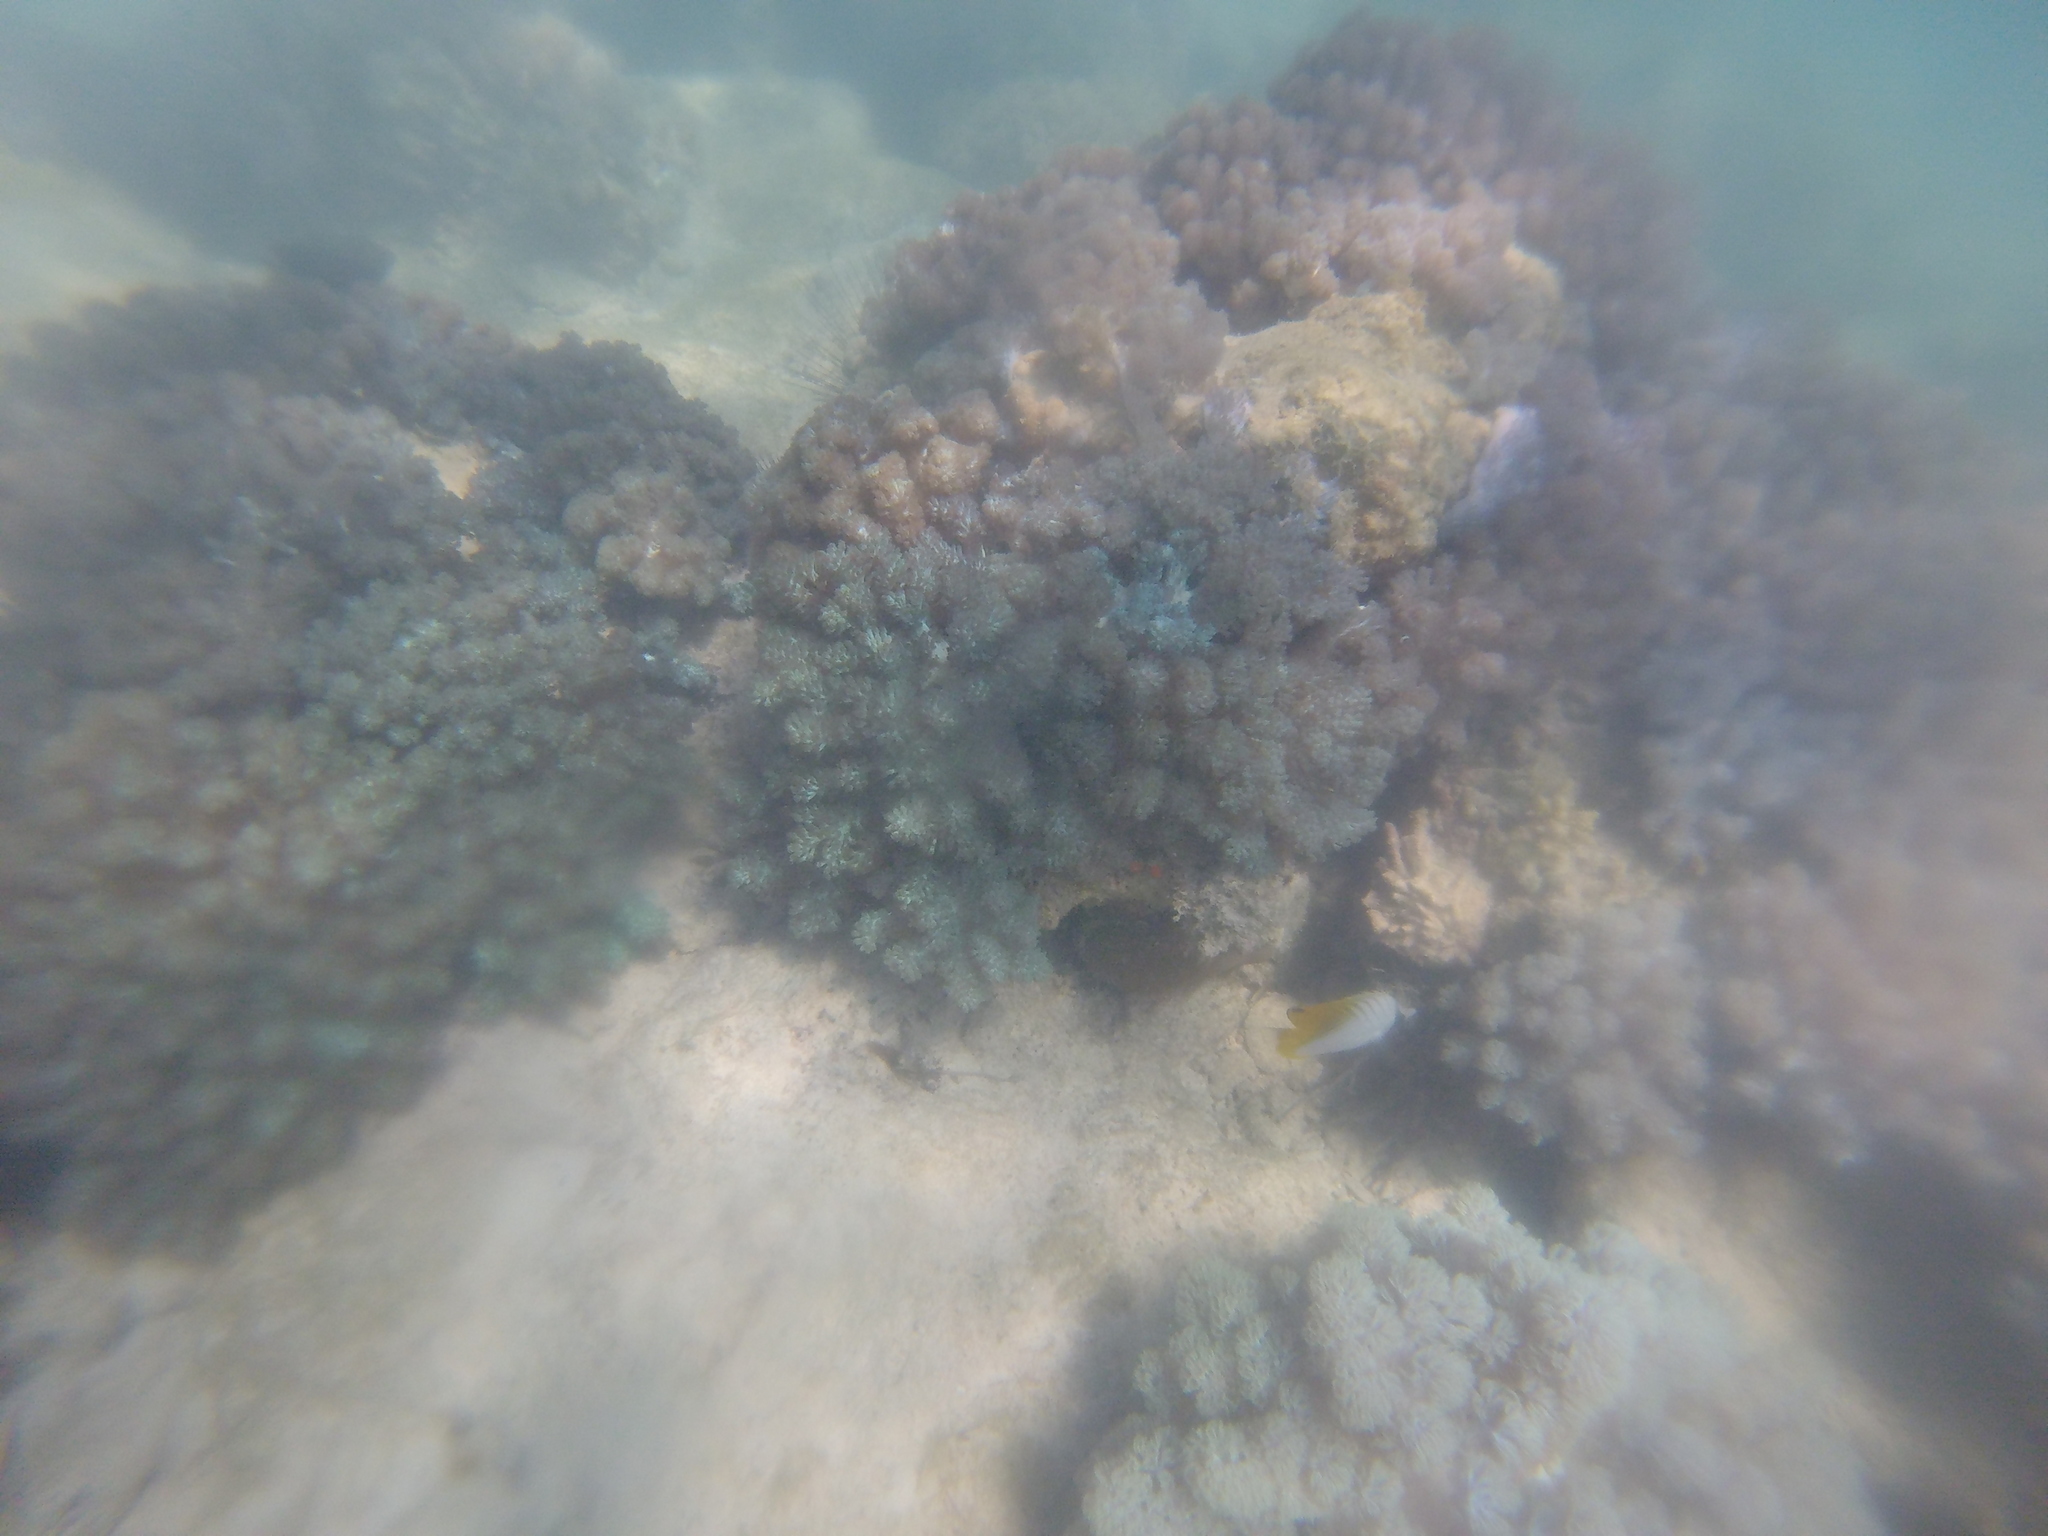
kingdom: Animalia
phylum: Chordata
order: Perciformes
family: Chaetodontidae
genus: Chaetodon
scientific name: Chaetodon auriga
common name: Threadfin butterflyfish
